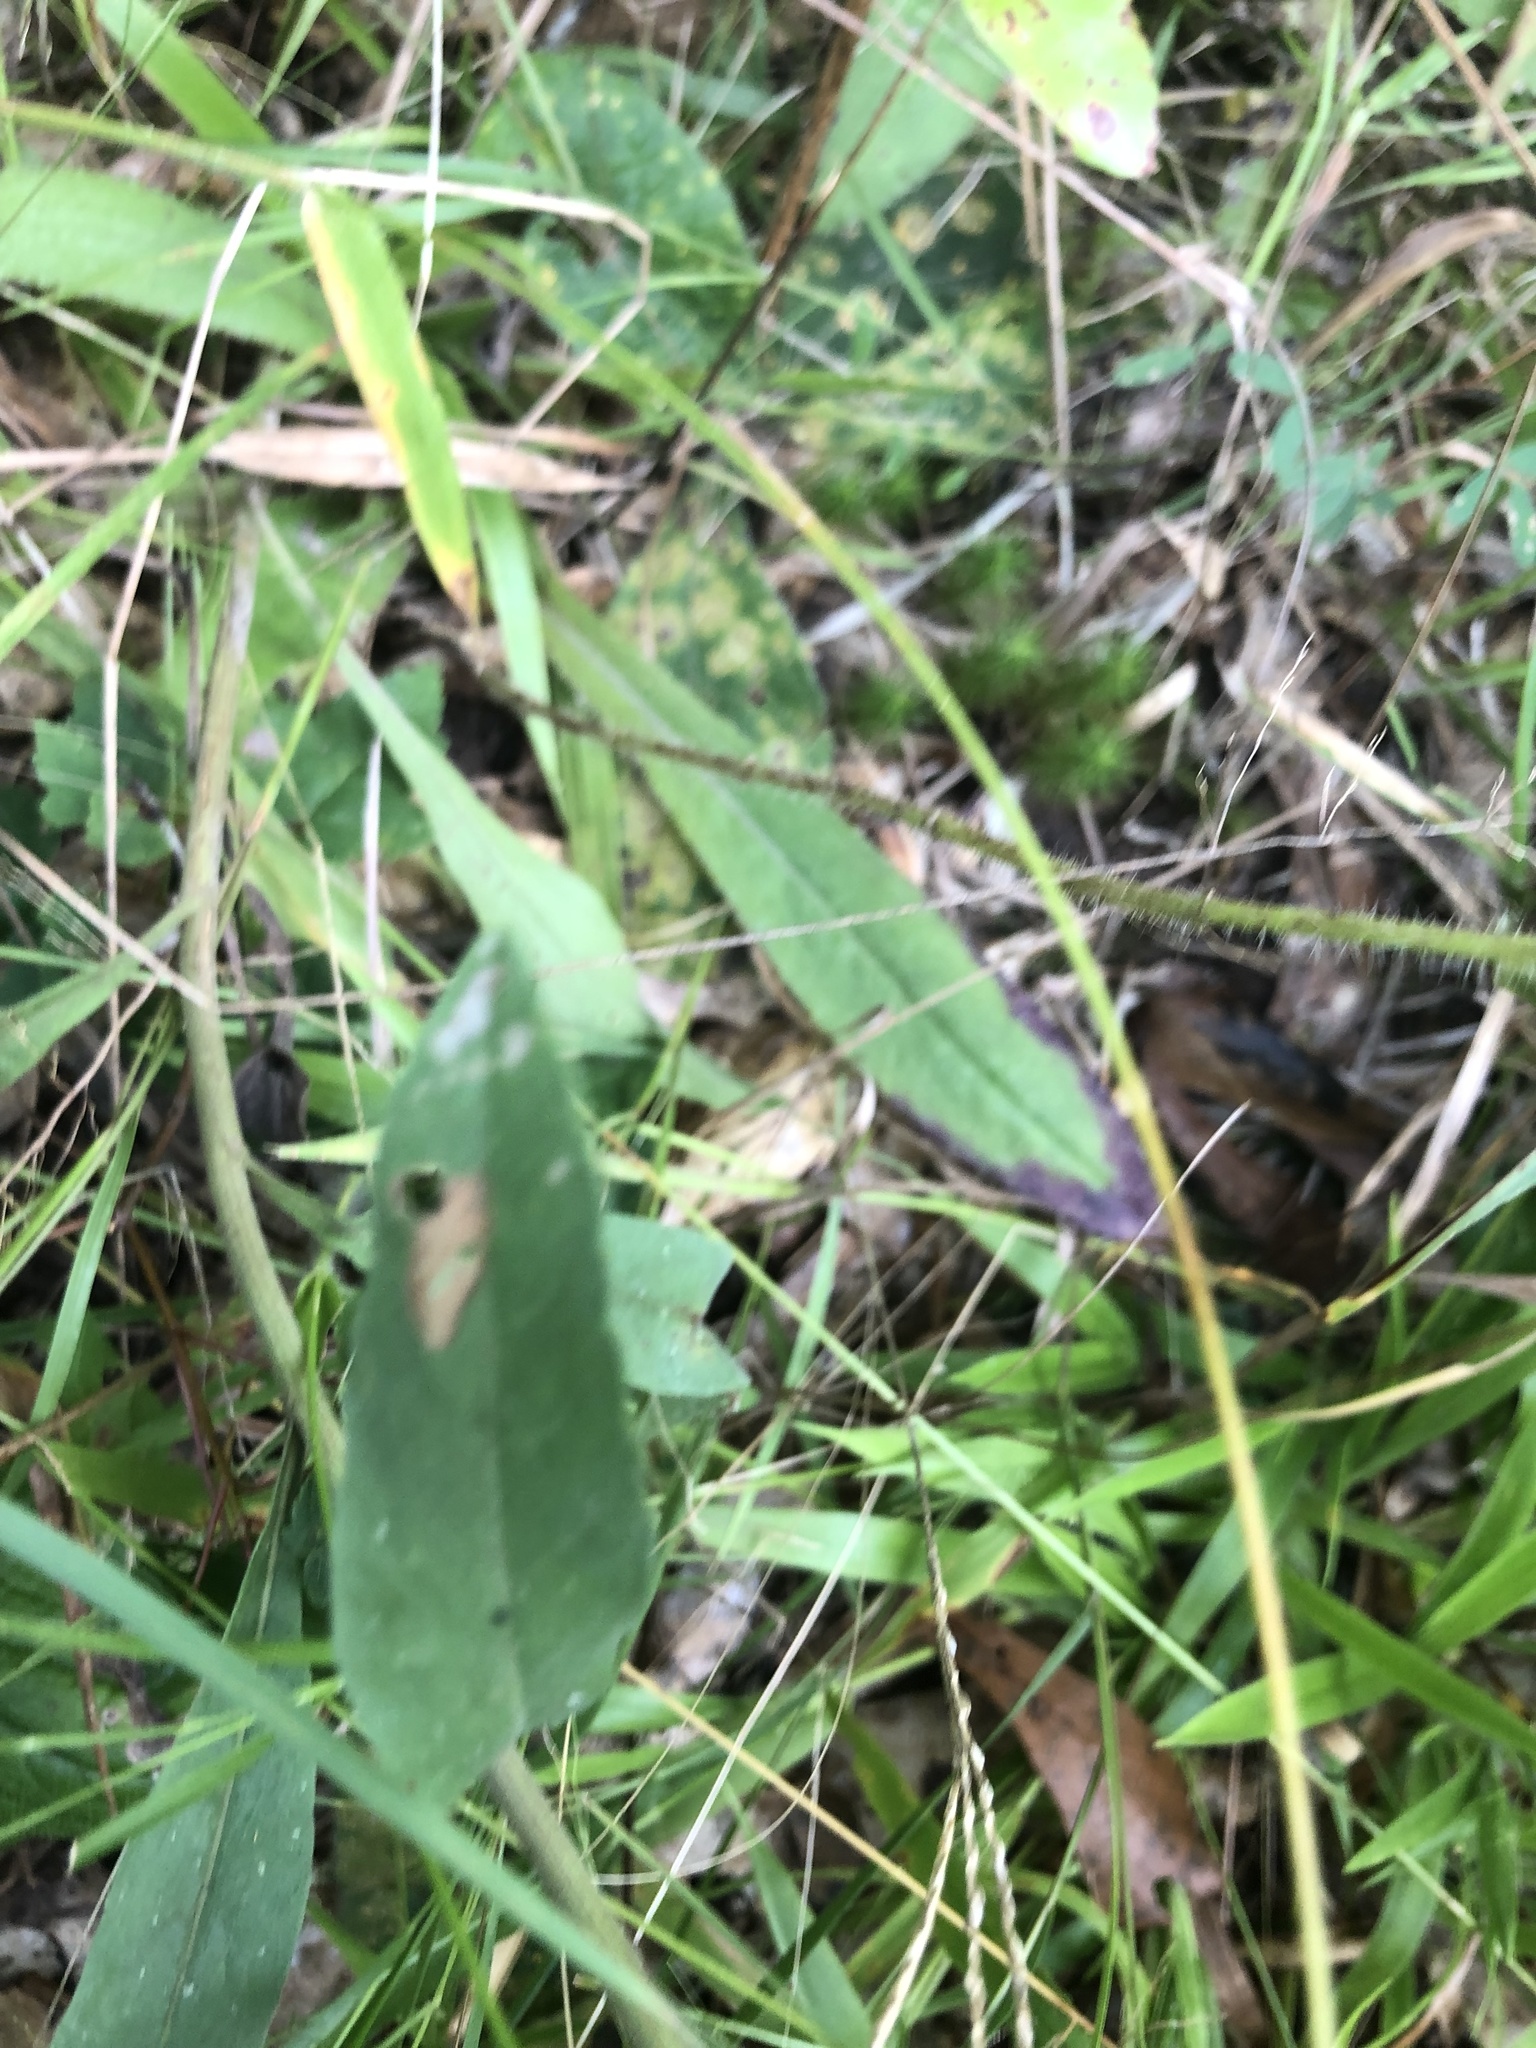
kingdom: Plantae
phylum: Tracheophyta
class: Magnoliopsida
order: Asterales
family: Asteraceae
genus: Solidago
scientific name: Solidago nemoralis
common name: Grey goldenrod
